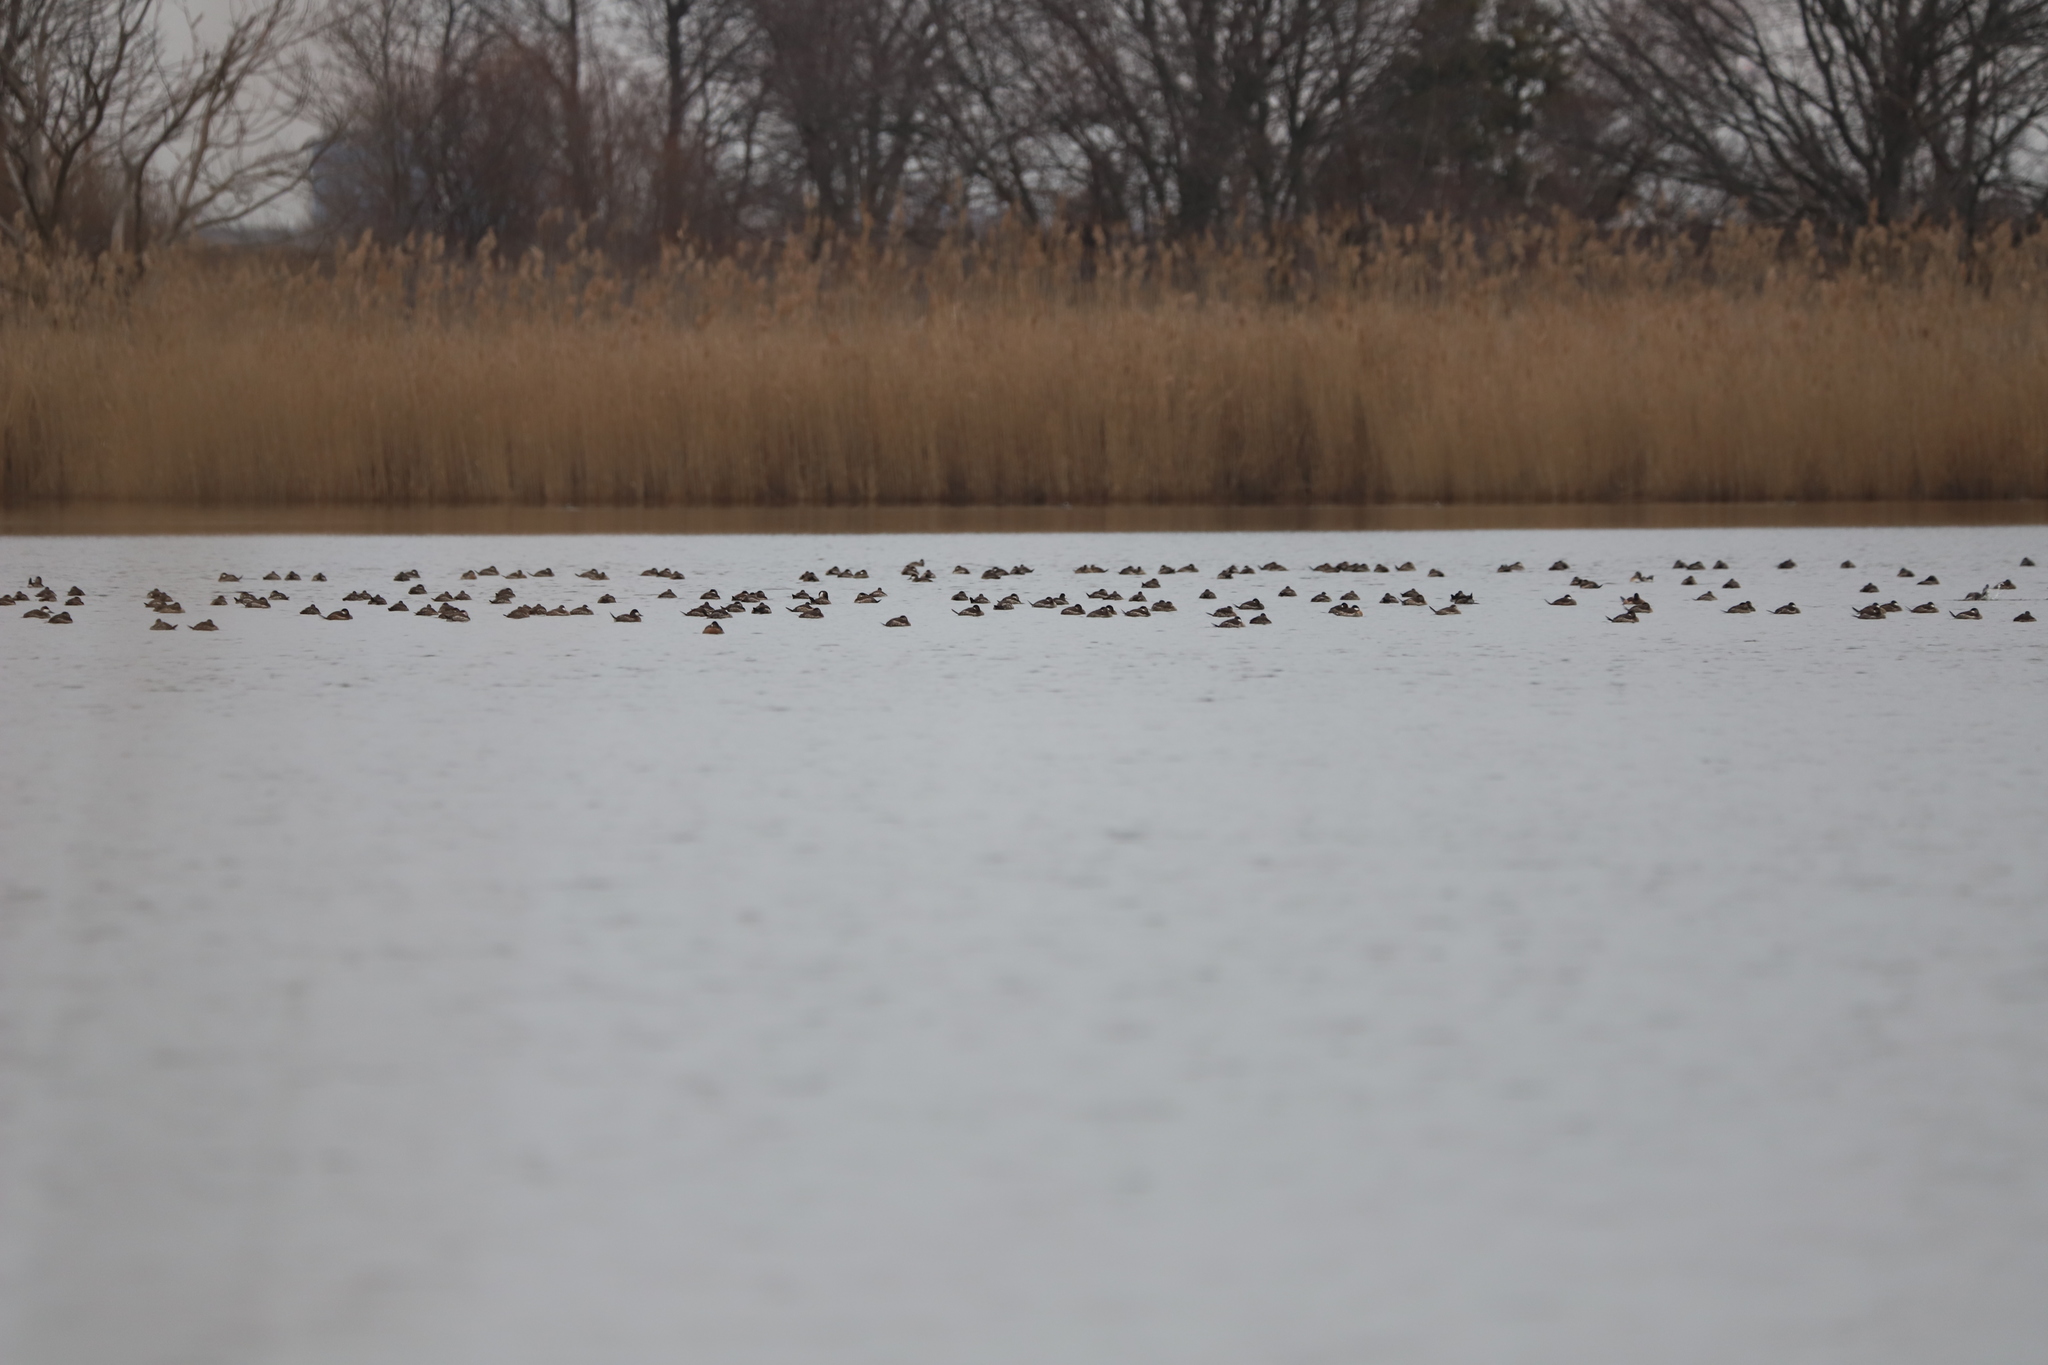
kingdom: Animalia
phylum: Chordata
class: Aves
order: Anseriformes
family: Anatidae
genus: Oxyura
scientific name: Oxyura jamaicensis
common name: Ruddy duck
